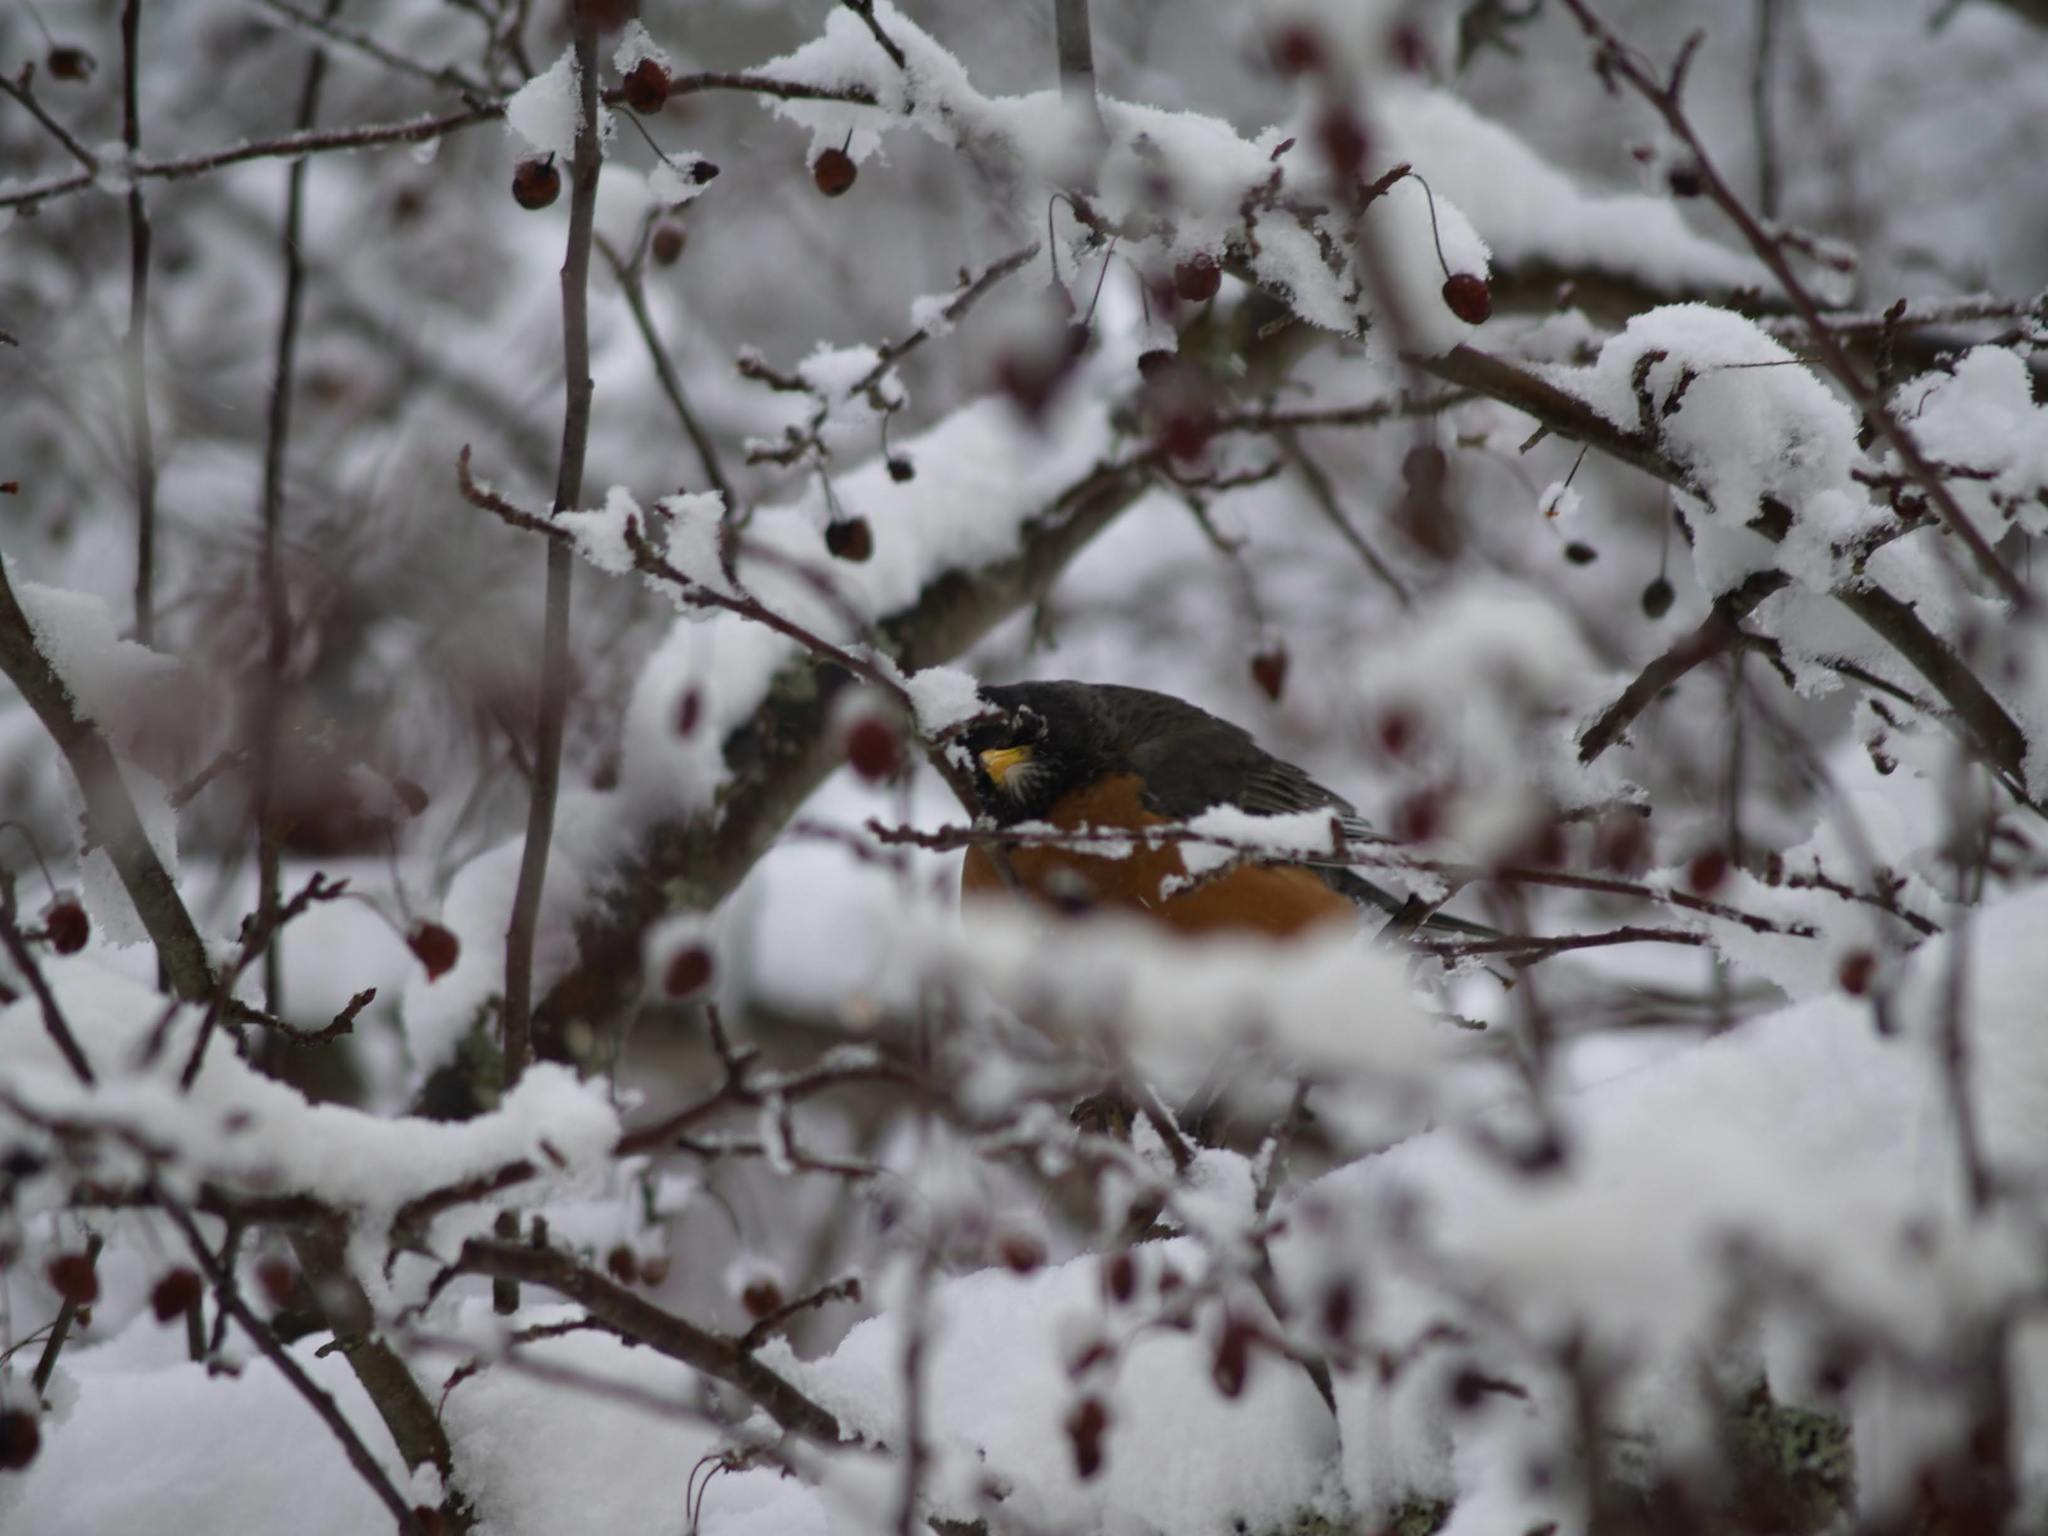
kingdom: Animalia
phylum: Chordata
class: Aves
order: Passeriformes
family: Turdidae
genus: Turdus
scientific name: Turdus migratorius
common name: American robin
